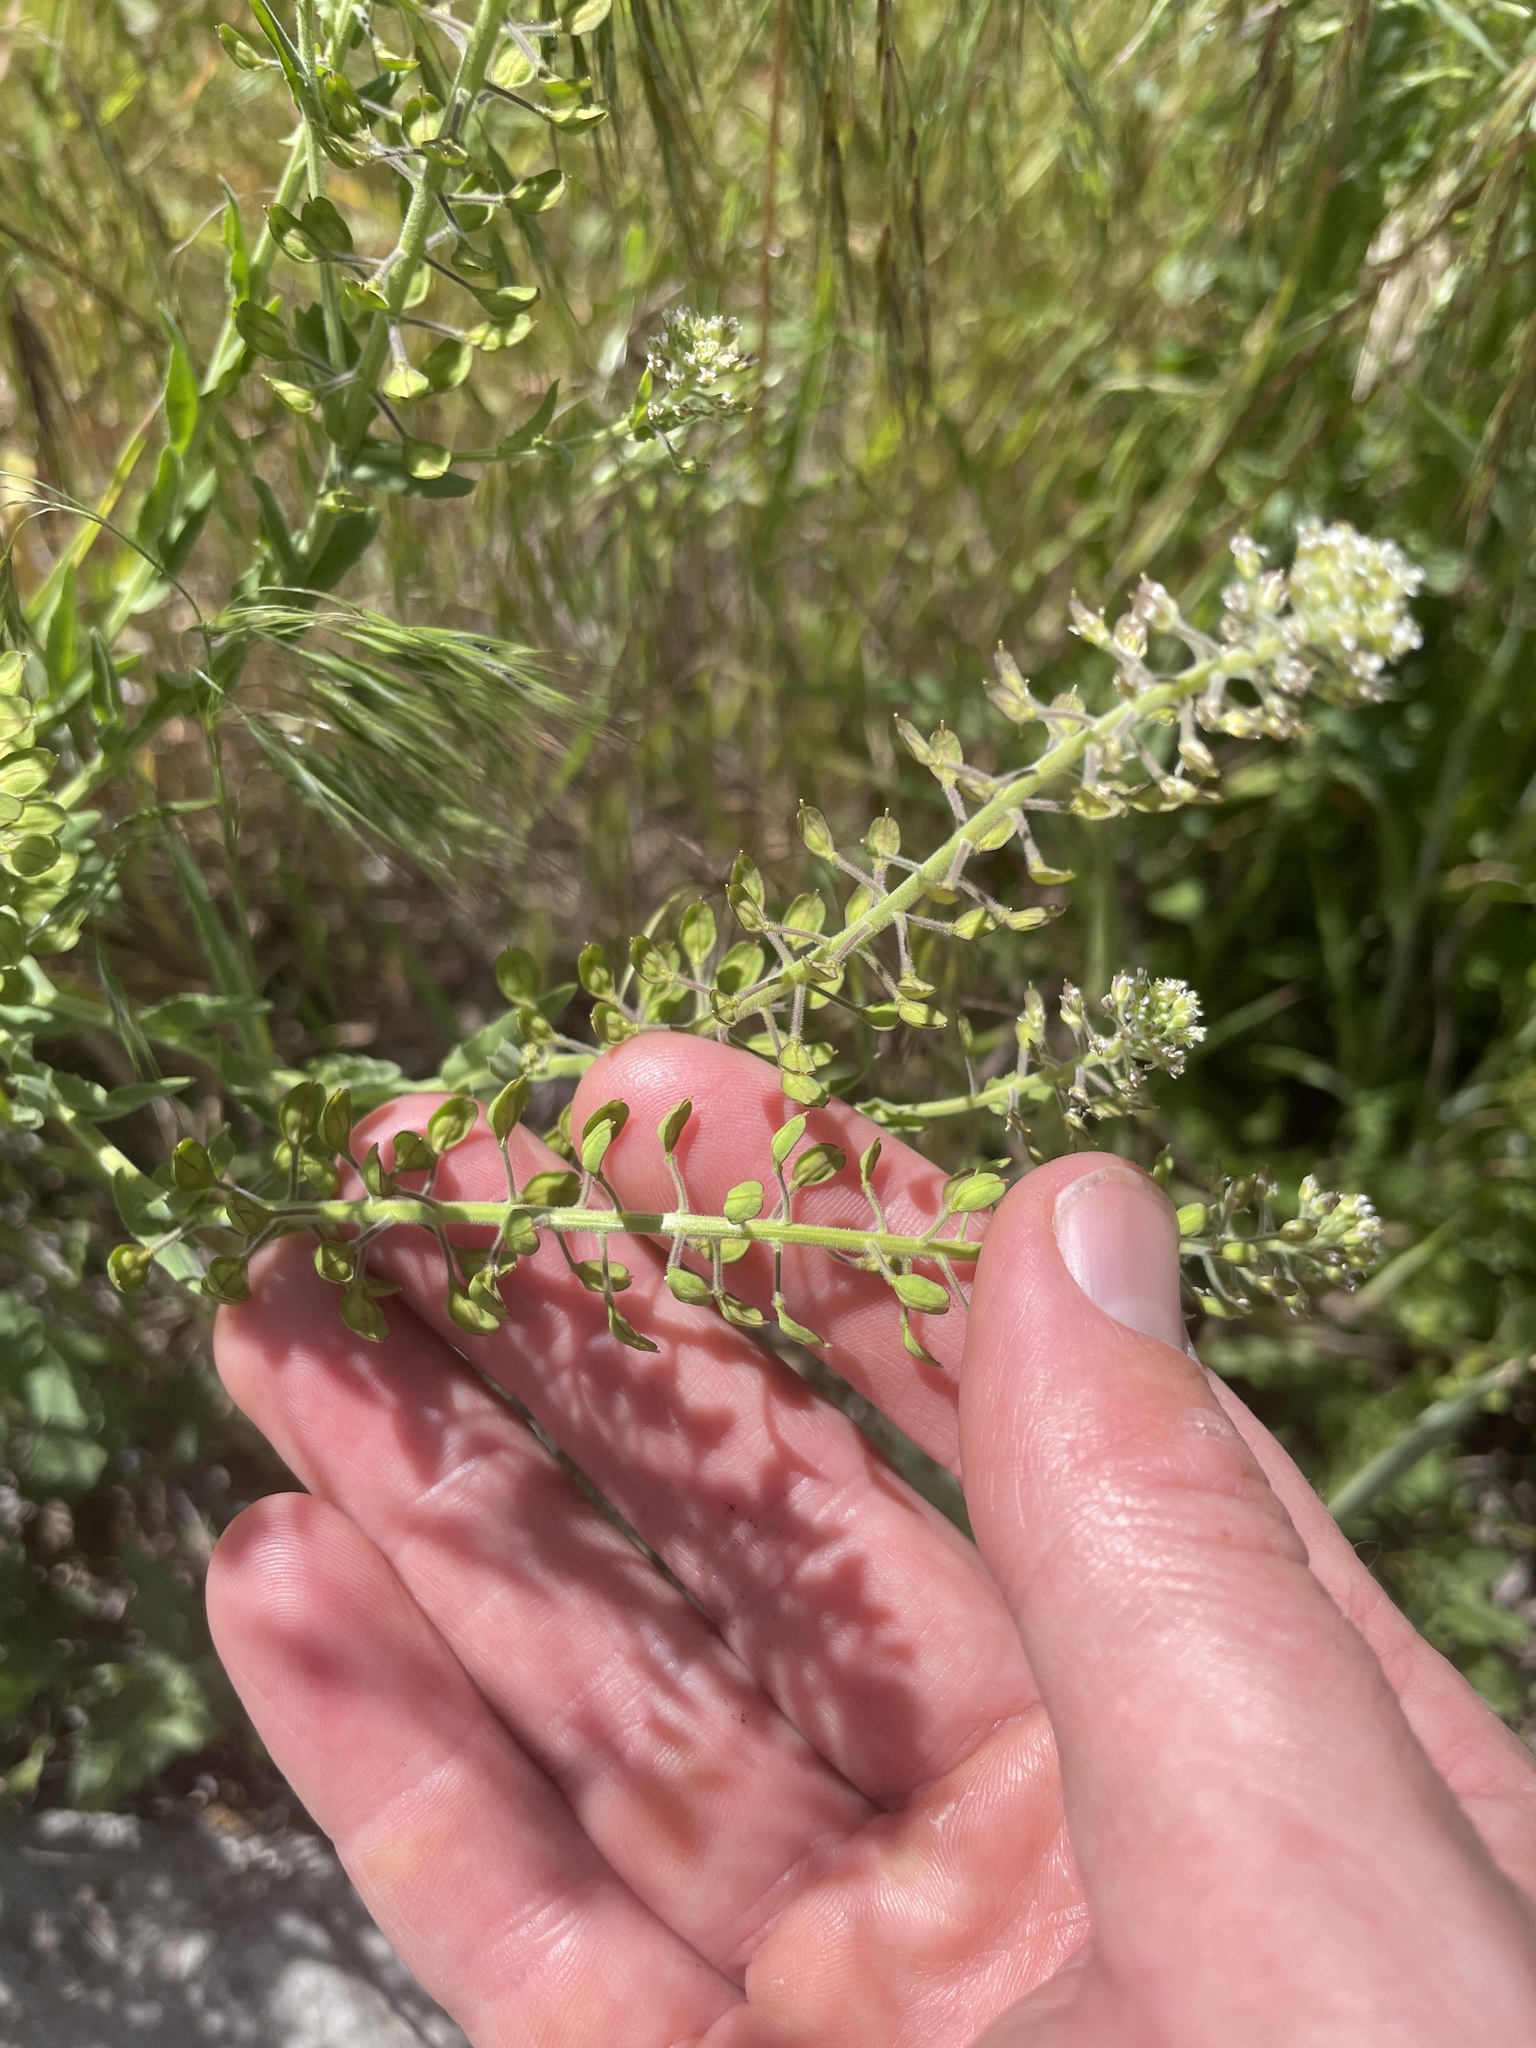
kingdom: Plantae
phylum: Tracheophyta
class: Magnoliopsida
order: Brassicales
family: Brassicaceae
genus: Lepidium
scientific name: Lepidium campestre
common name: Field pepperwort
